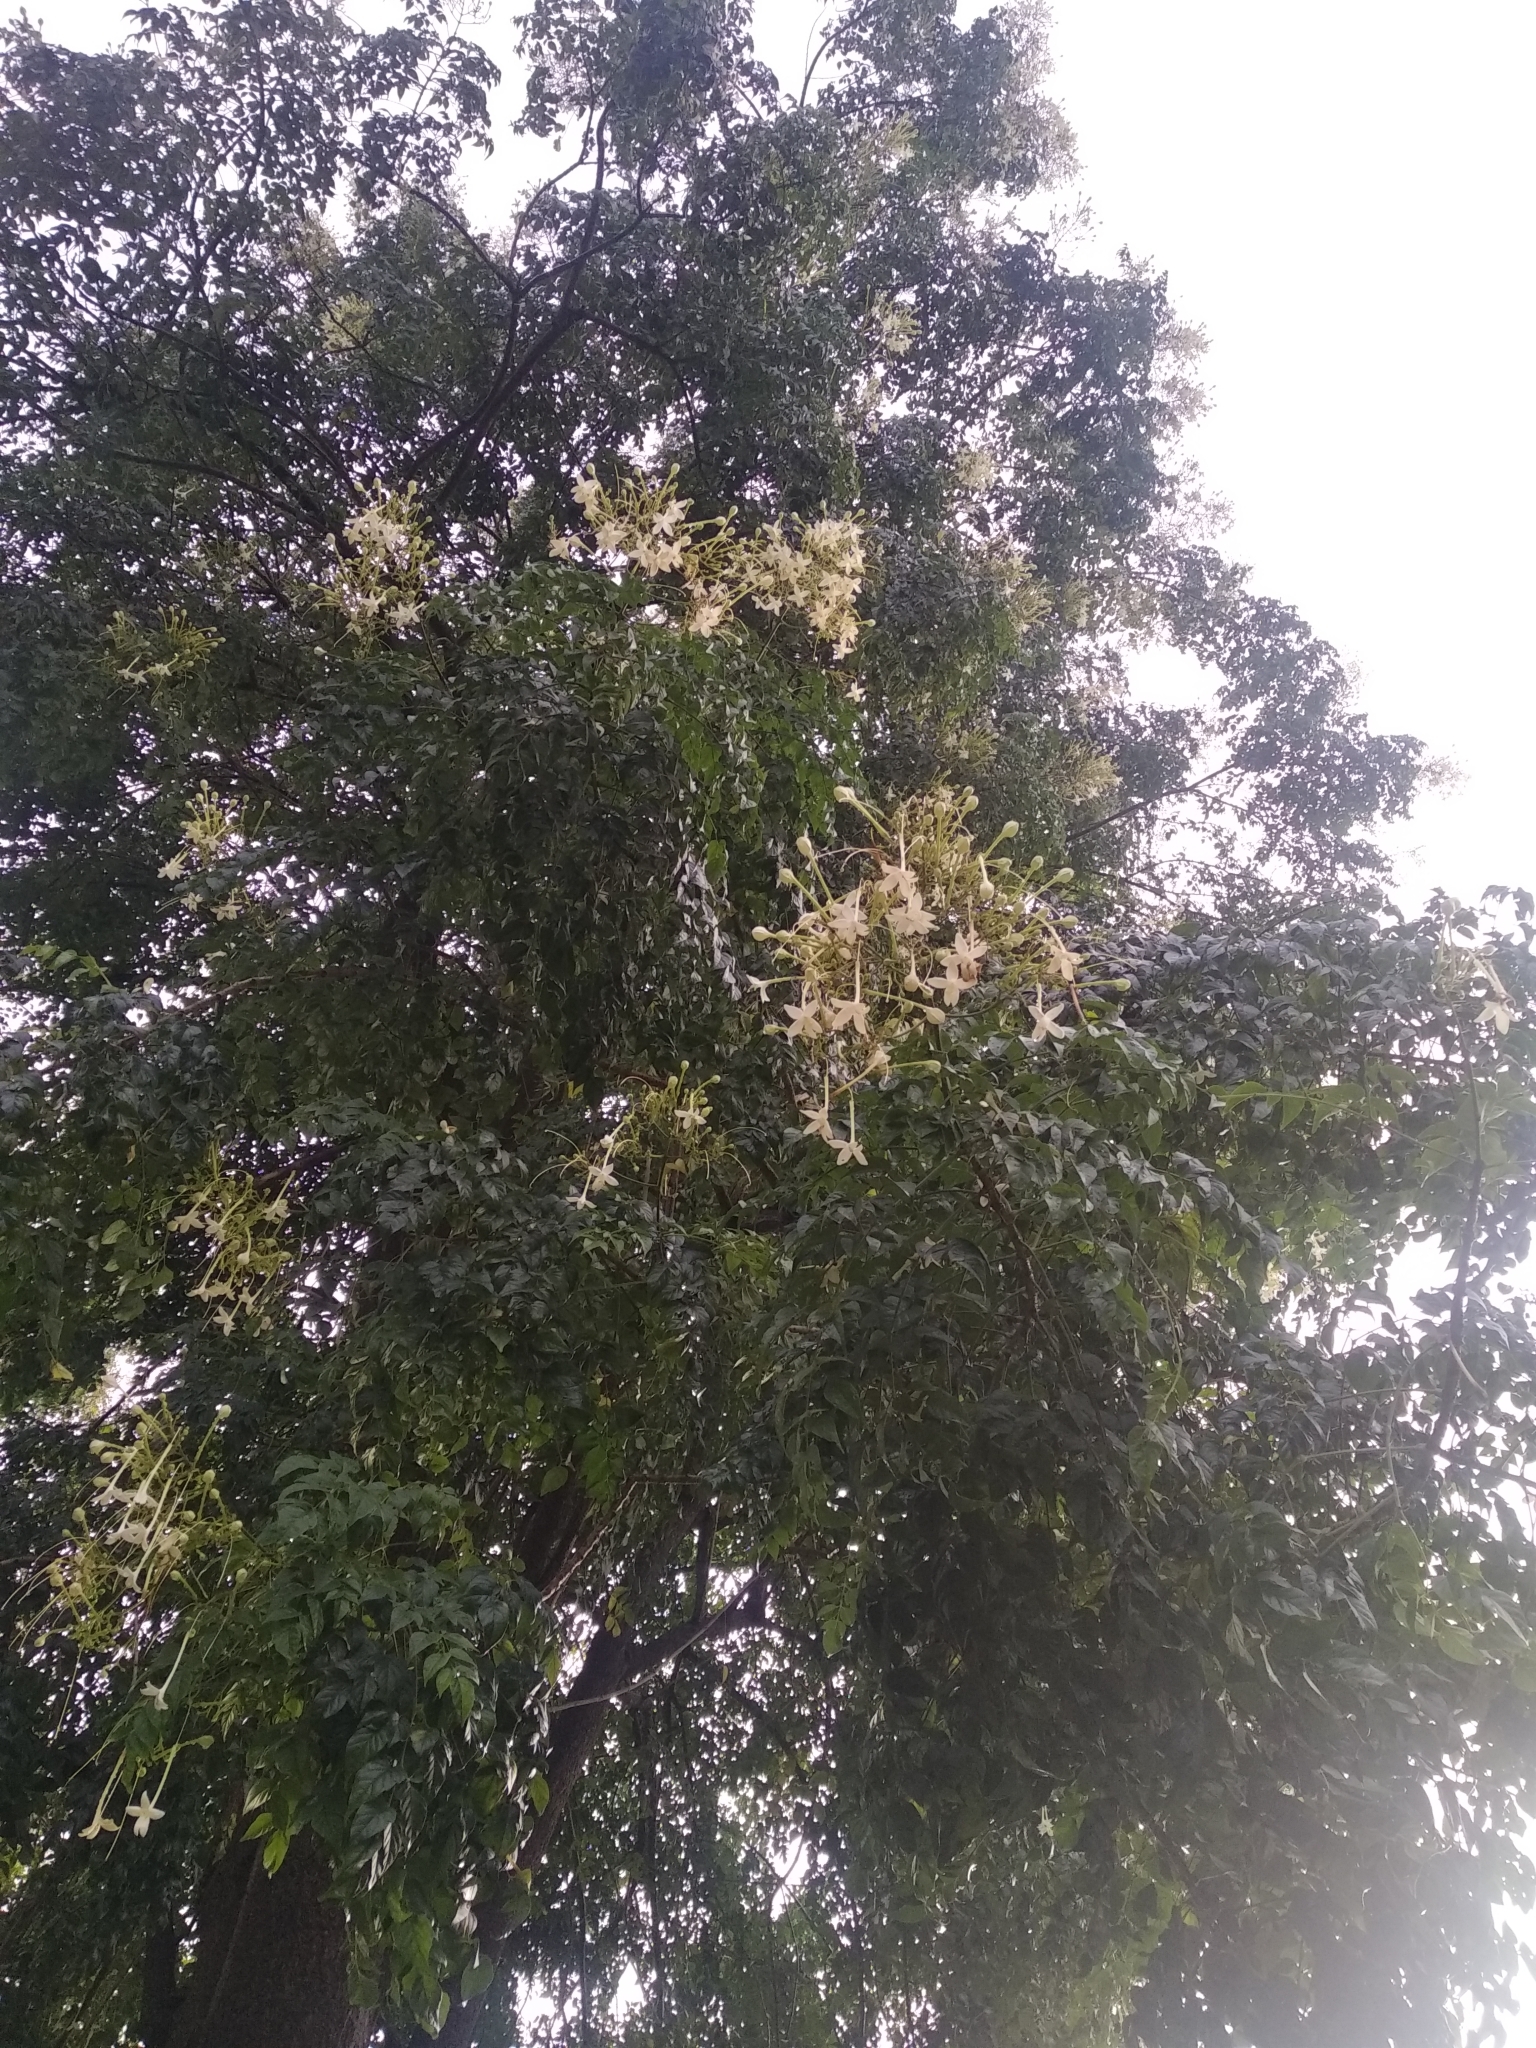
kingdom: Plantae
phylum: Tracheophyta
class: Magnoliopsida
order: Lamiales
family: Bignoniaceae
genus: Millingtonia
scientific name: Millingtonia hortensis
